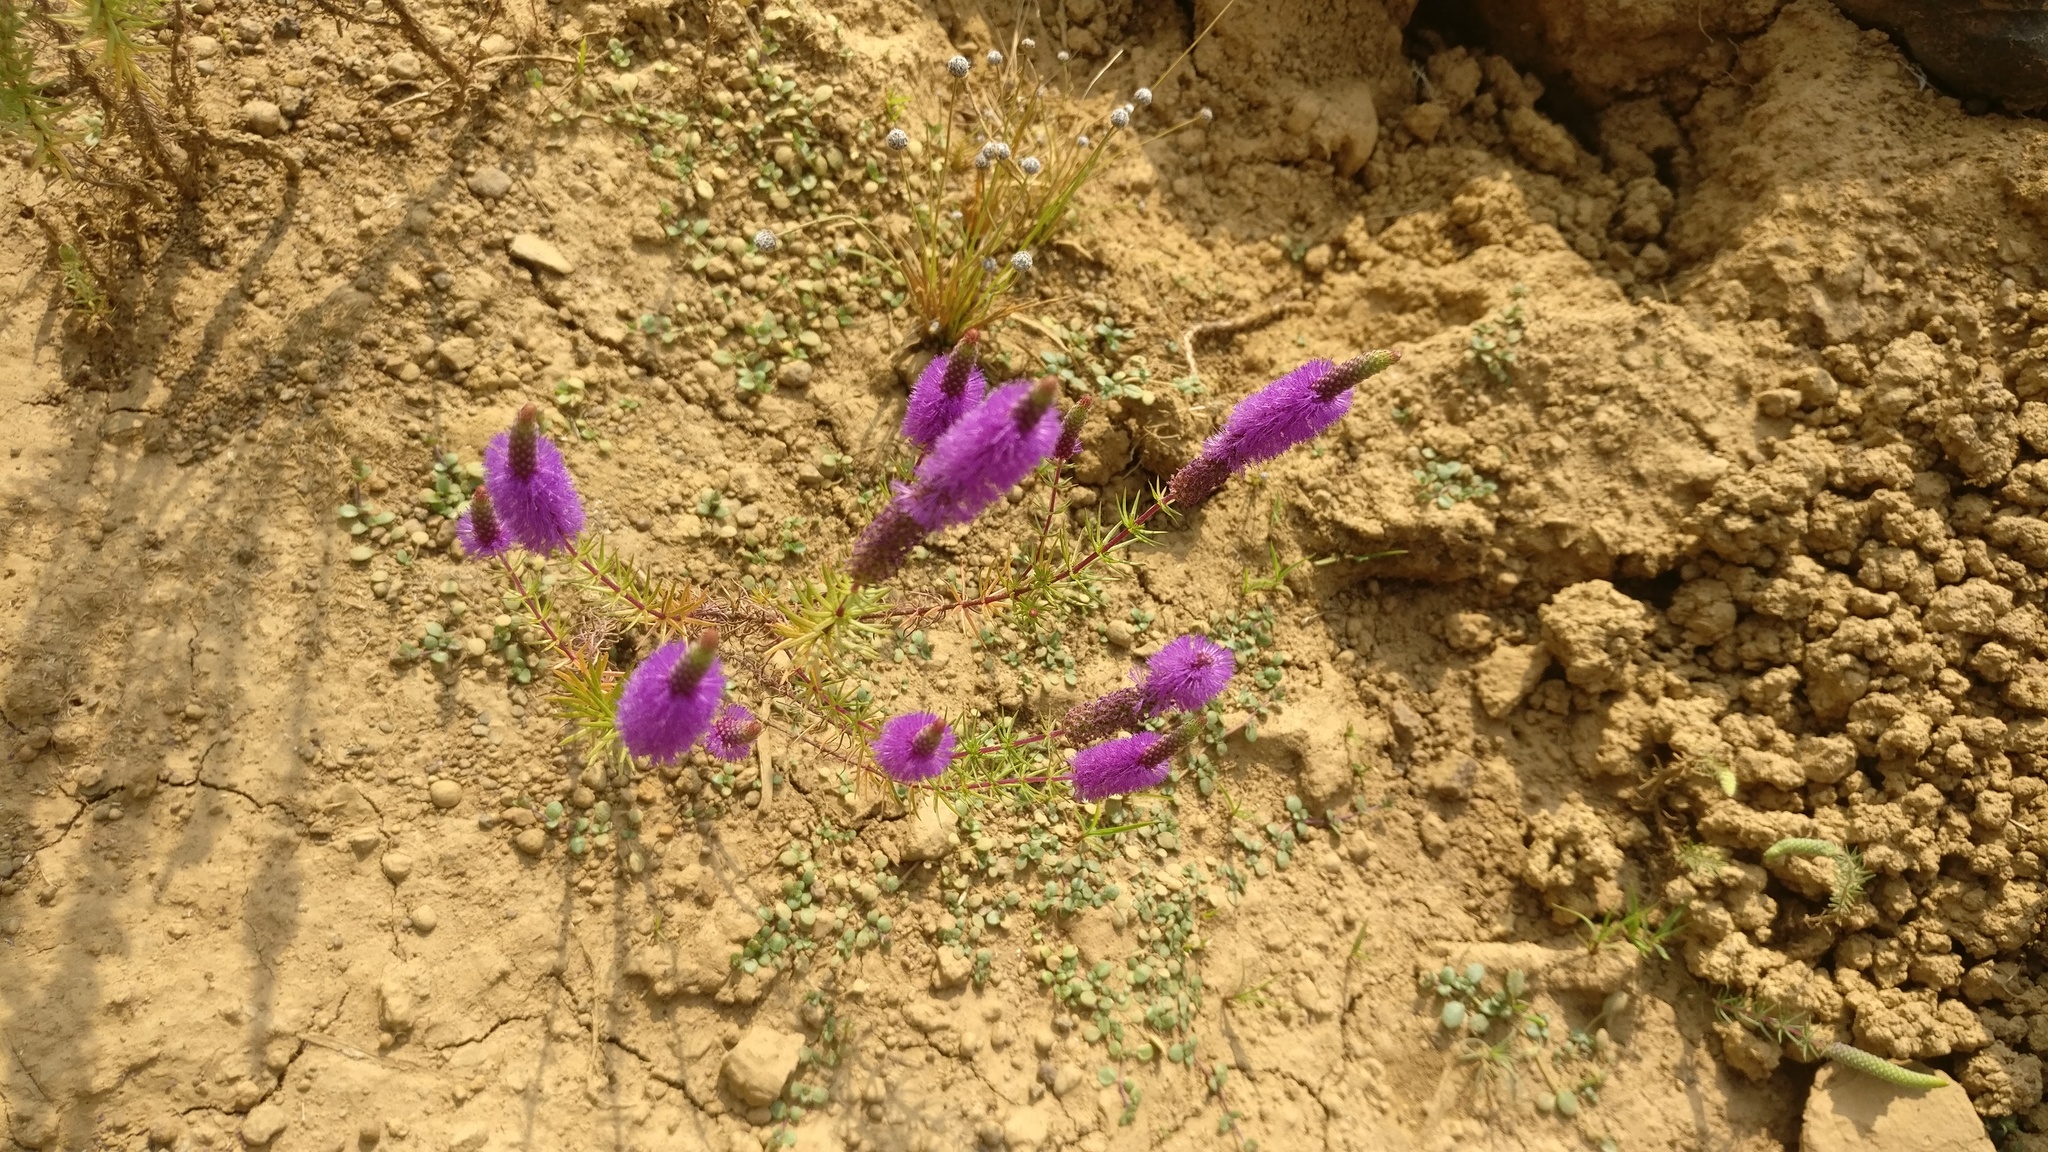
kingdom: Plantae
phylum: Tracheophyta
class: Magnoliopsida
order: Lamiales
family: Lamiaceae
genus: Pogostemon
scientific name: Pogostemon deccanensis
